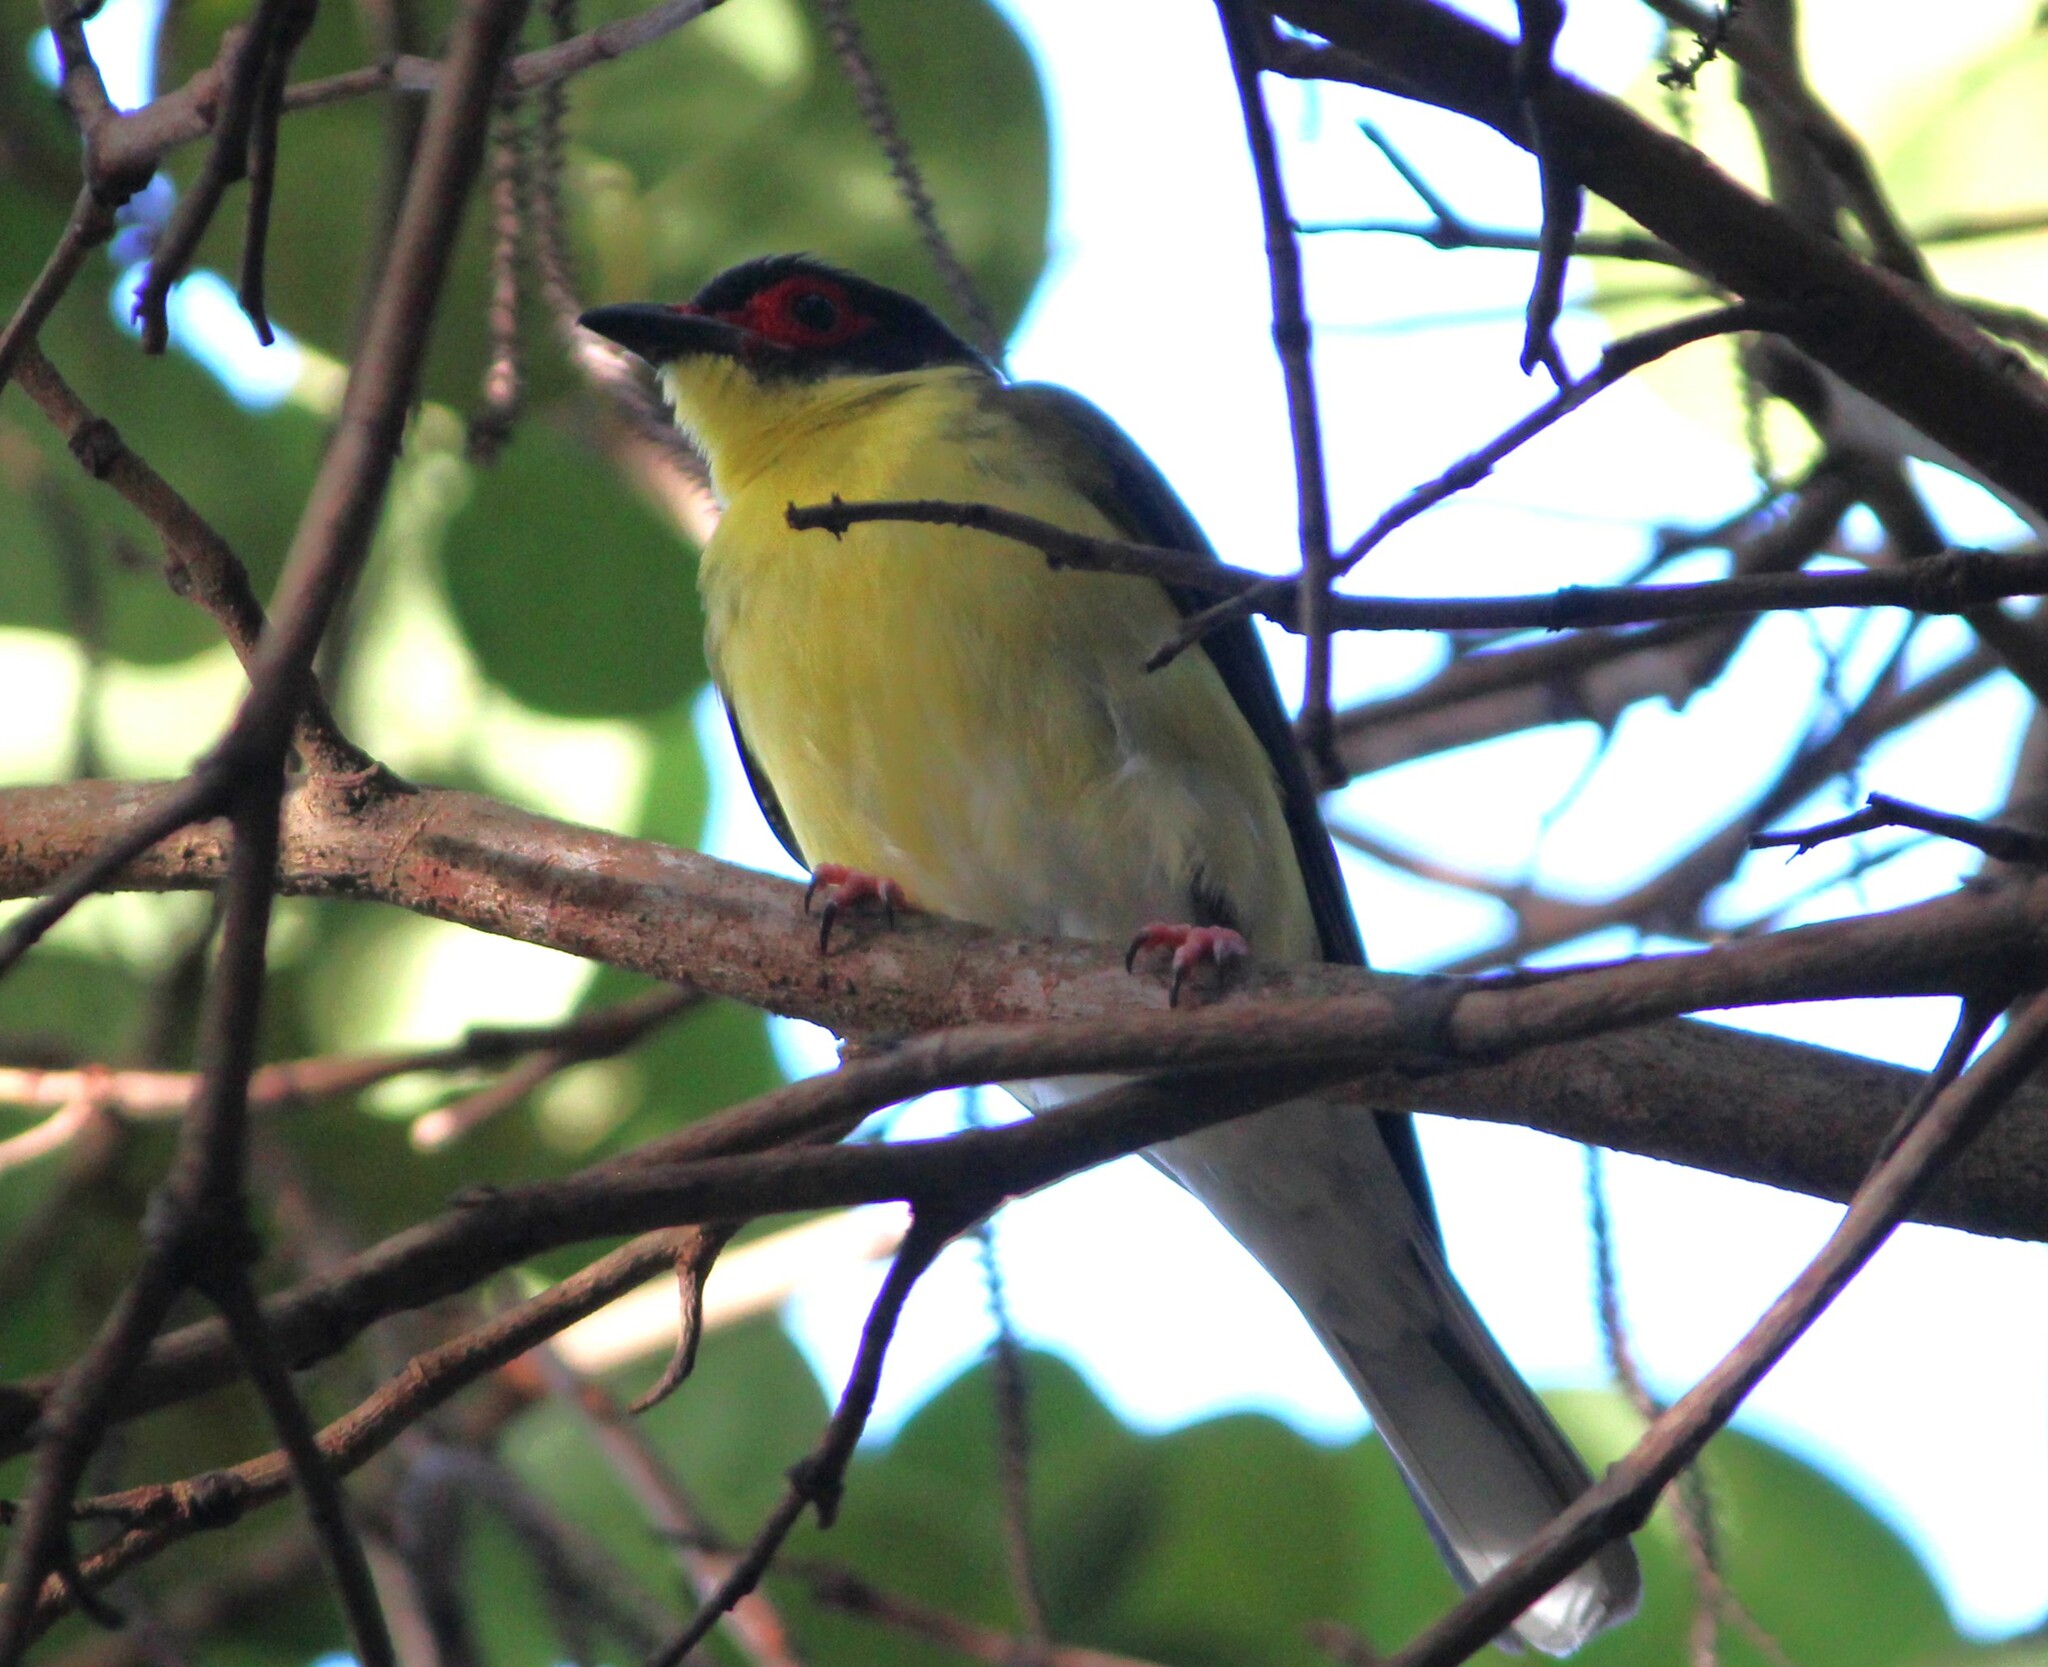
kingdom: Animalia
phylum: Chordata
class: Aves
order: Passeriformes
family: Oriolidae
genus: Sphecotheres
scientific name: Sphecotheres vieilloti
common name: Australasian figbird
